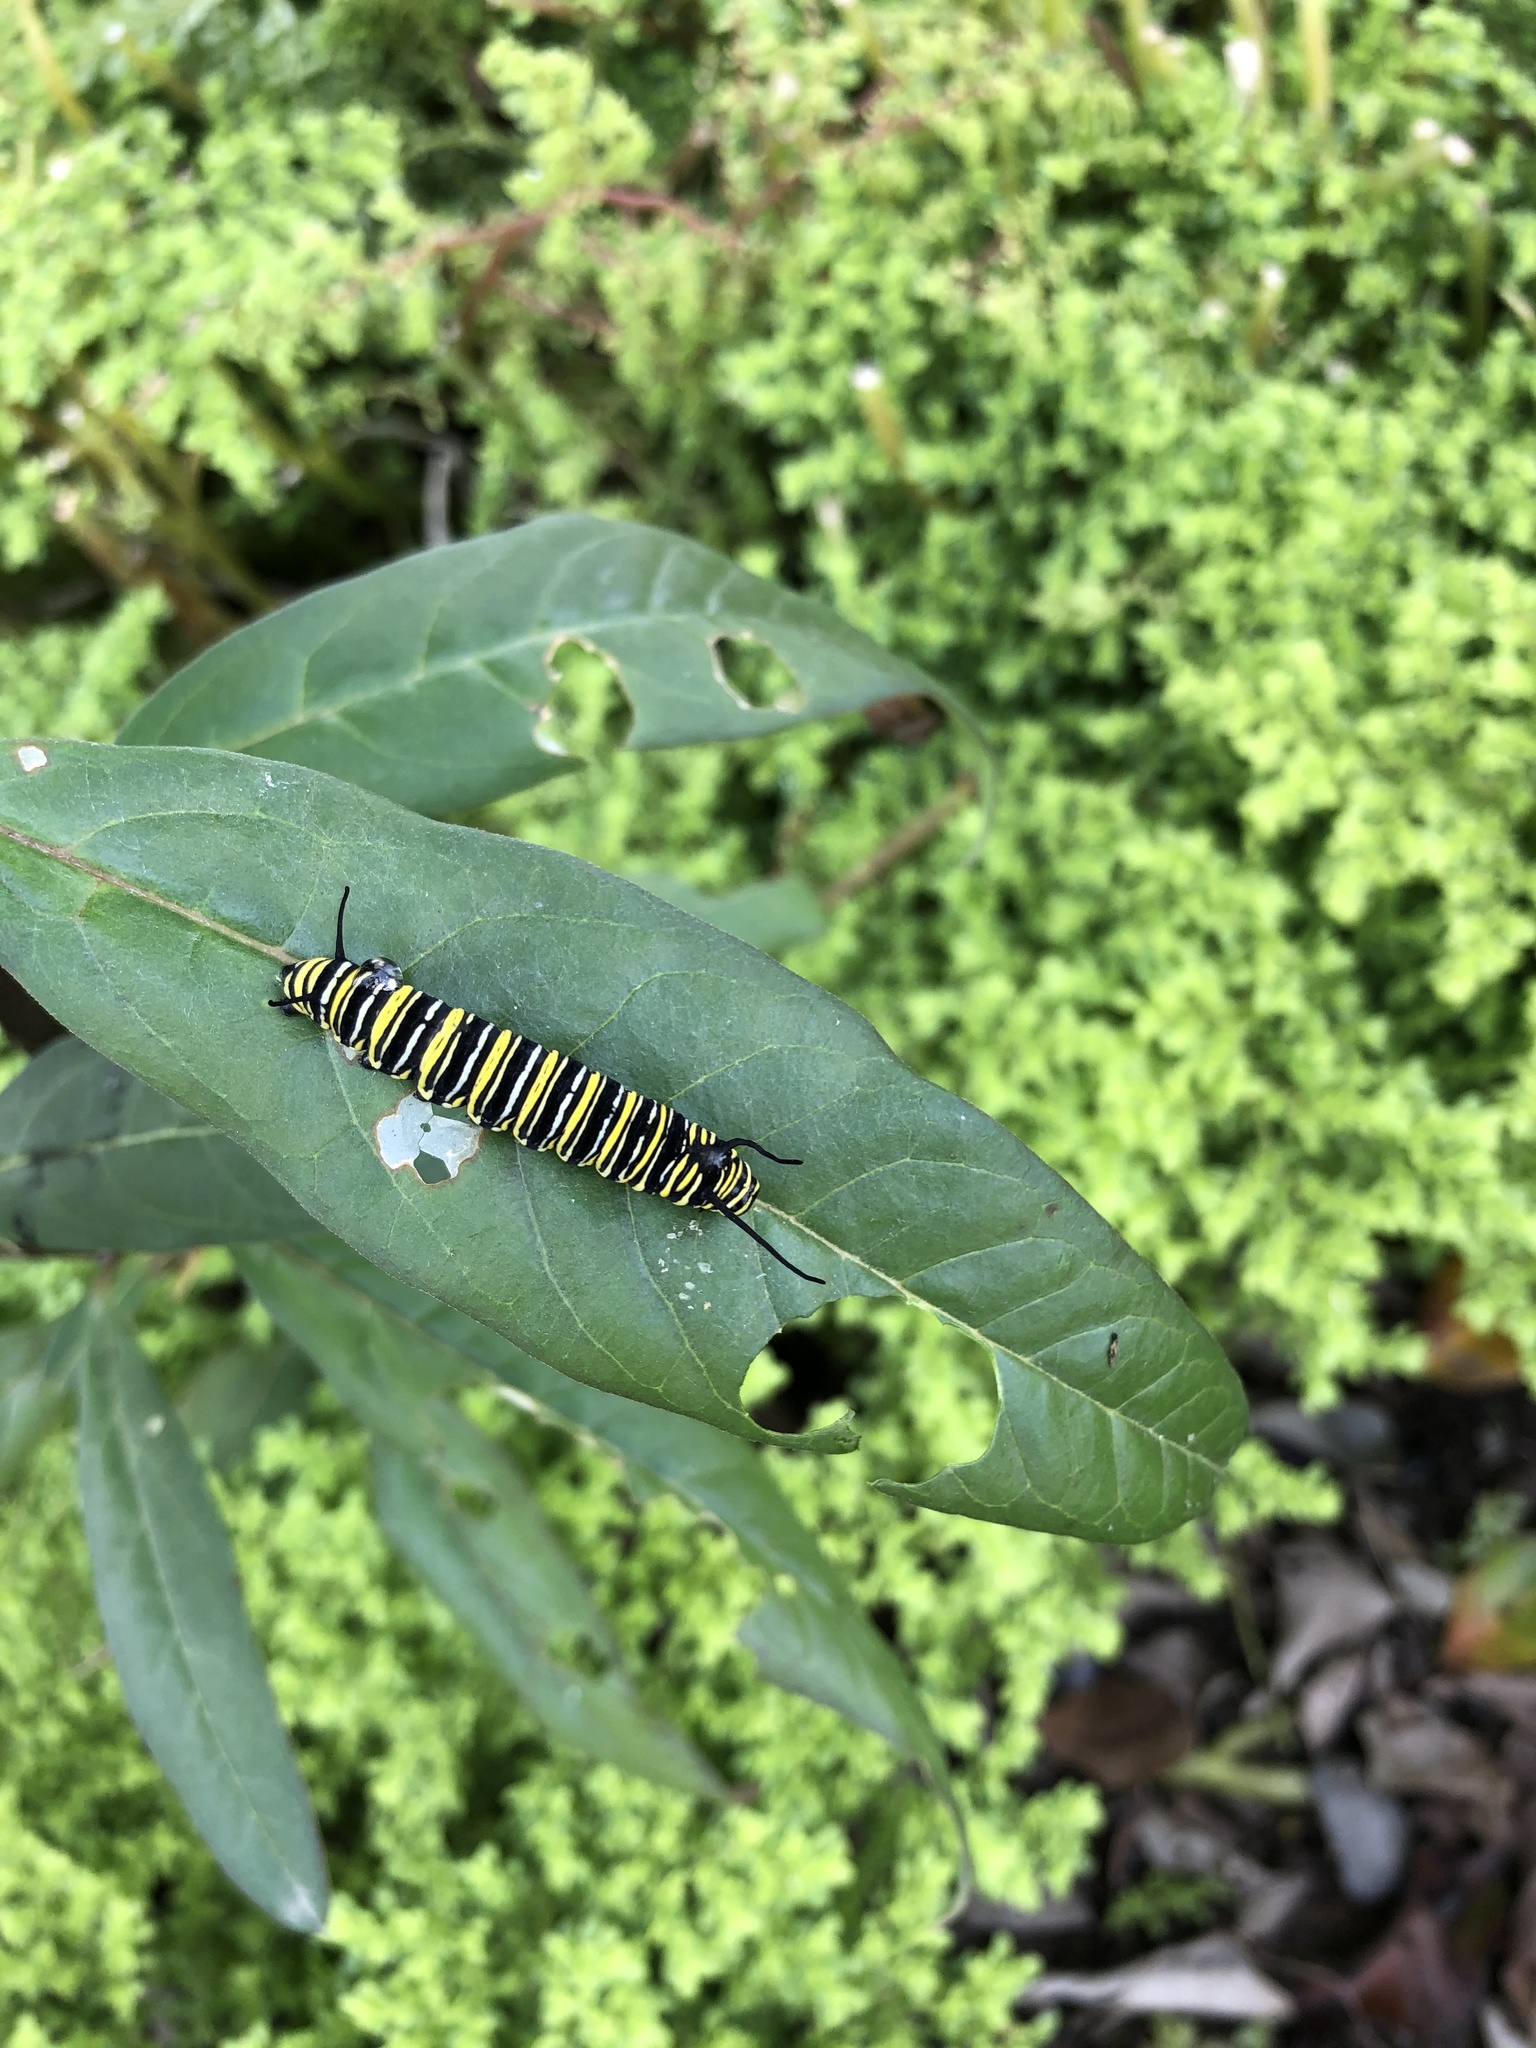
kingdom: Animalia
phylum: Arthropoda
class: Insecta
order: Lepidoptera
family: Nymphalidae
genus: Danaus
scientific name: Danaus plexippus
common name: Monarch
